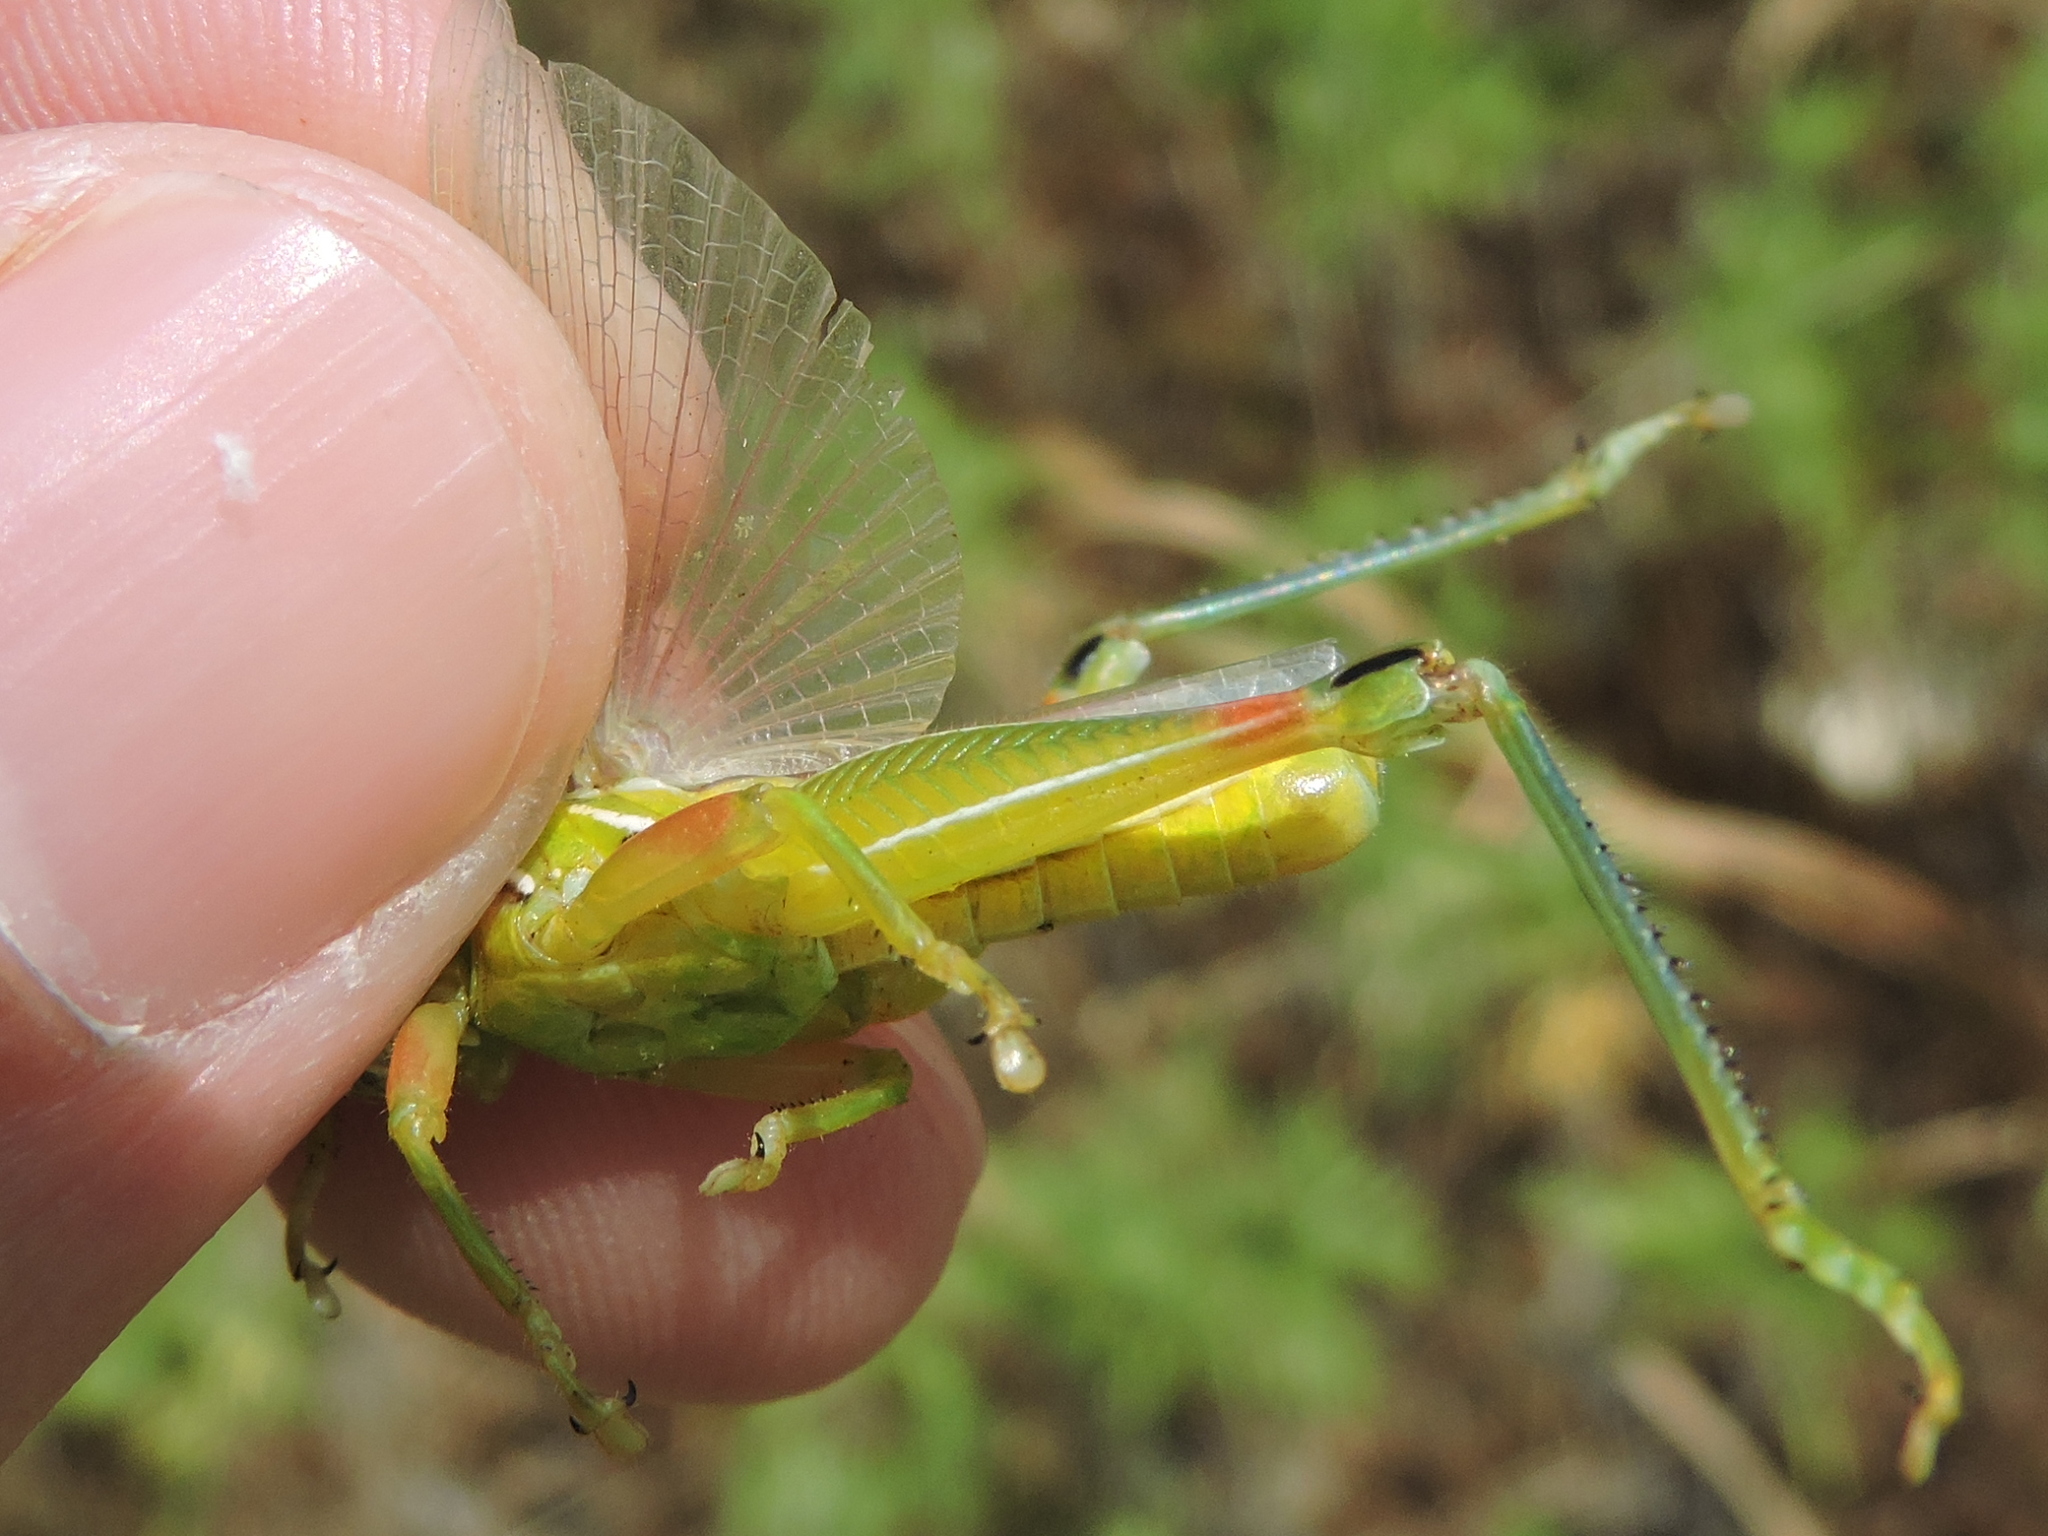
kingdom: Animalia
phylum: Arthropoda
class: Insecta
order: Orthoptera
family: Acrididae
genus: Hesperotettix
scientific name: Hesperotettix viridis
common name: Meadow purple-striped grasshopper
